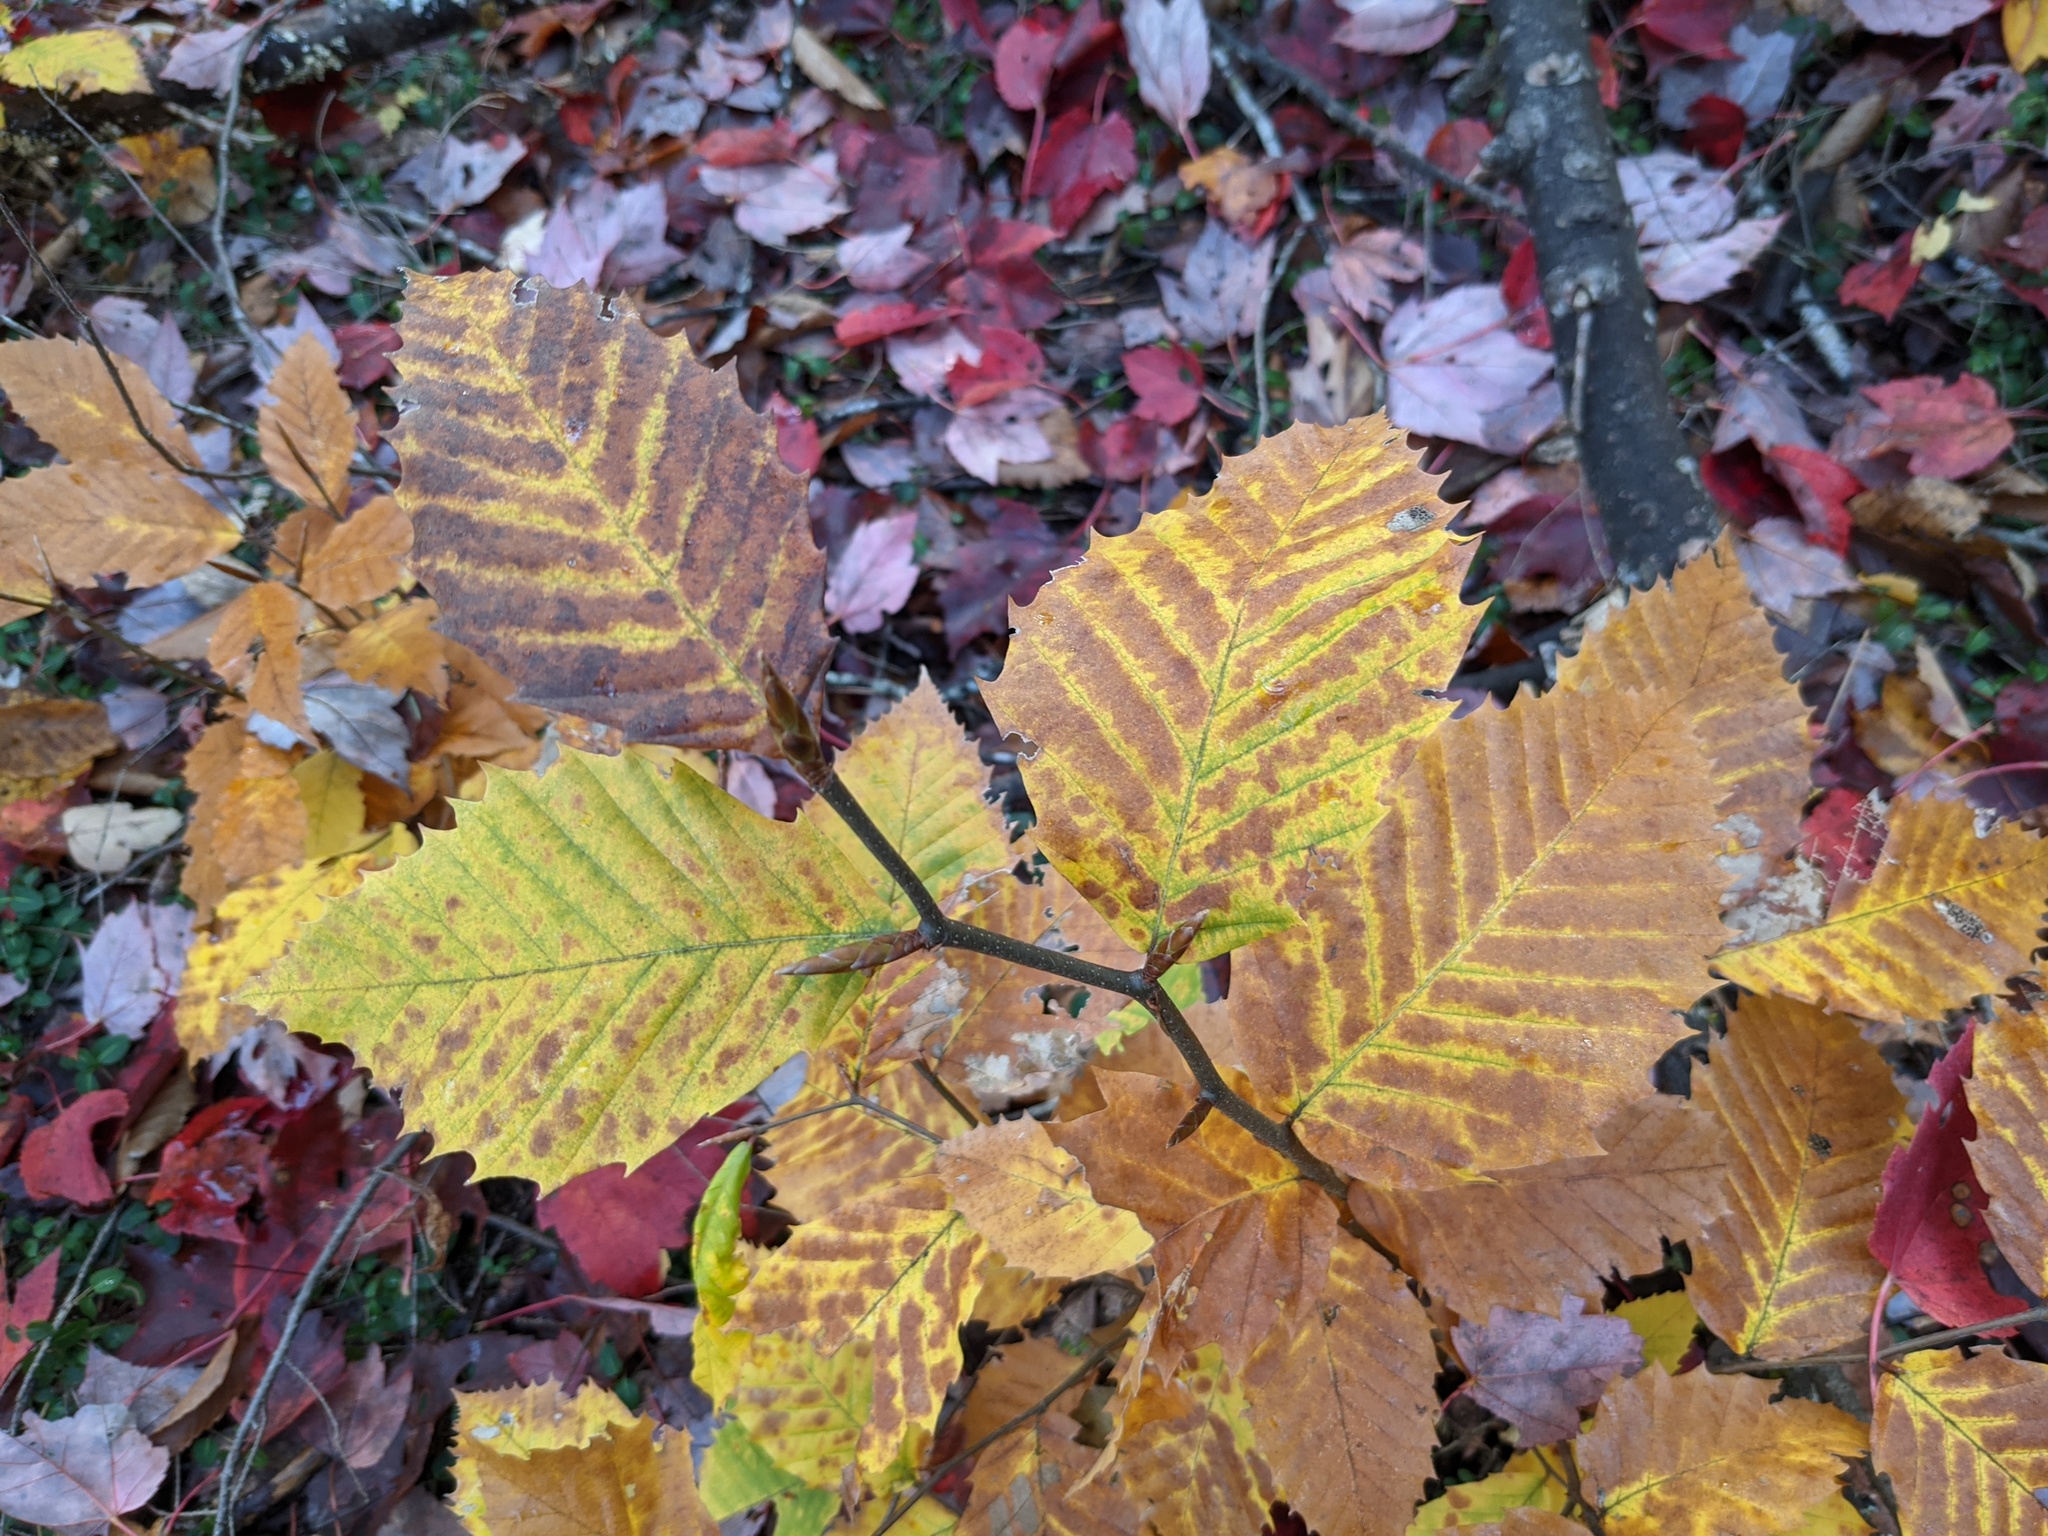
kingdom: Plantae
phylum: Tracheophyta
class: Magnoliopsida
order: Fagales
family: Fagaceae
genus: Fagus
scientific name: Fagus grandifolia
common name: American beech
